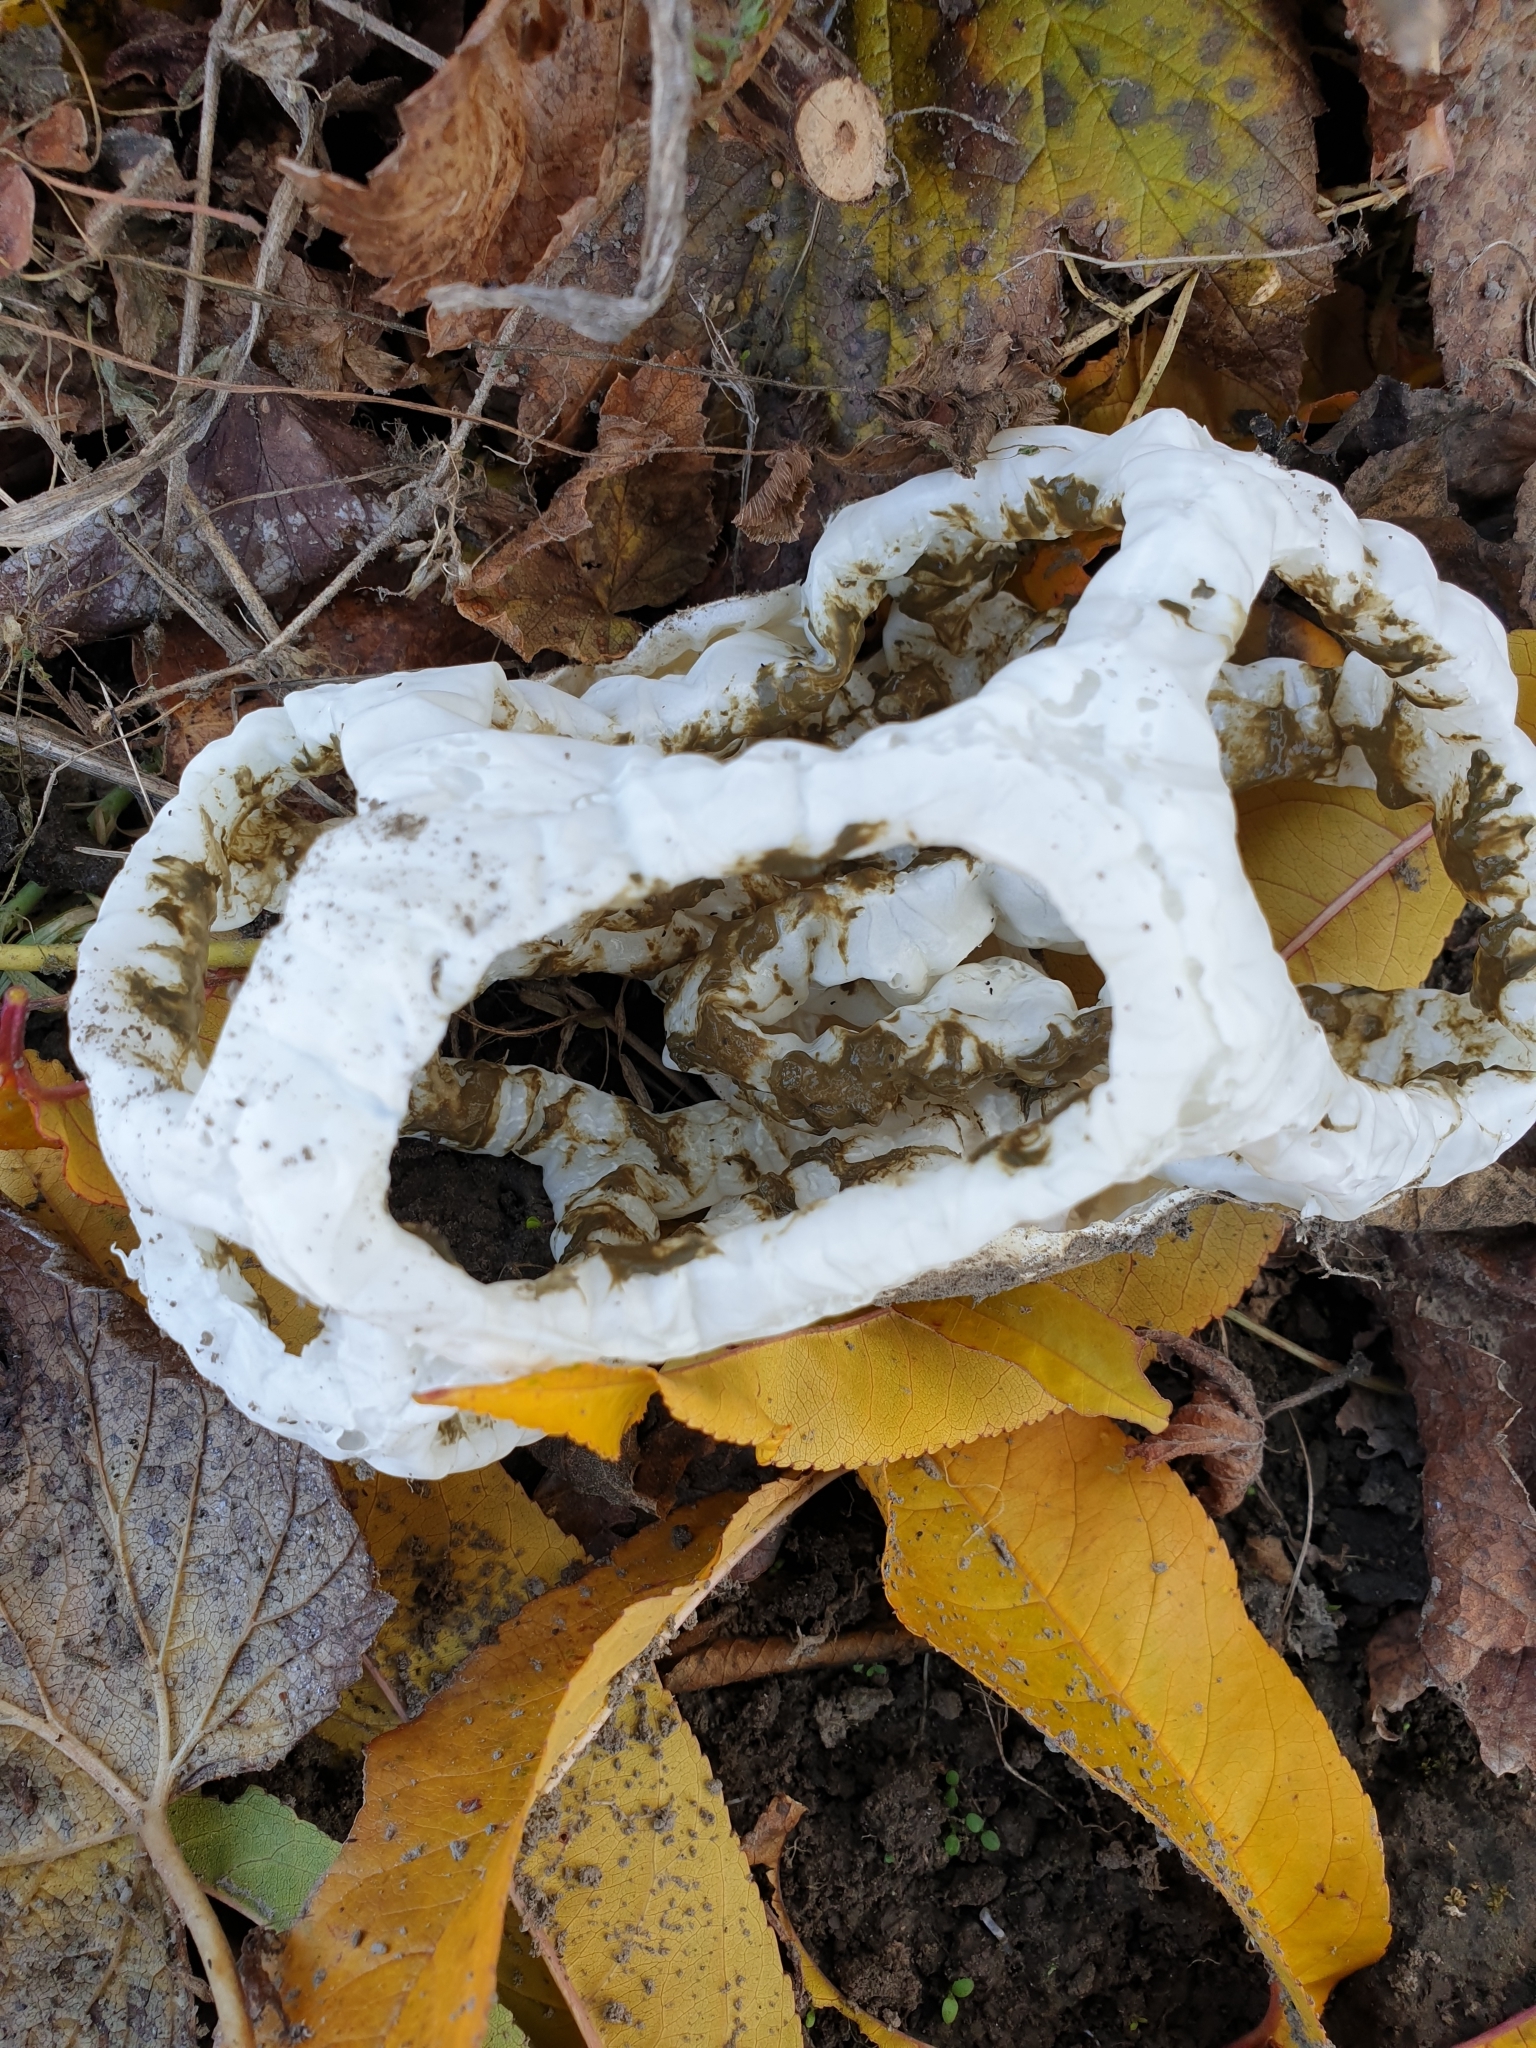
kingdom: Fungi
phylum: Basidiomycota
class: Agaricomycetes
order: Phallales
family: Phallaceae
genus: Ileodictyon
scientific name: Ileodictyon cibarium
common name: Basket fungus
